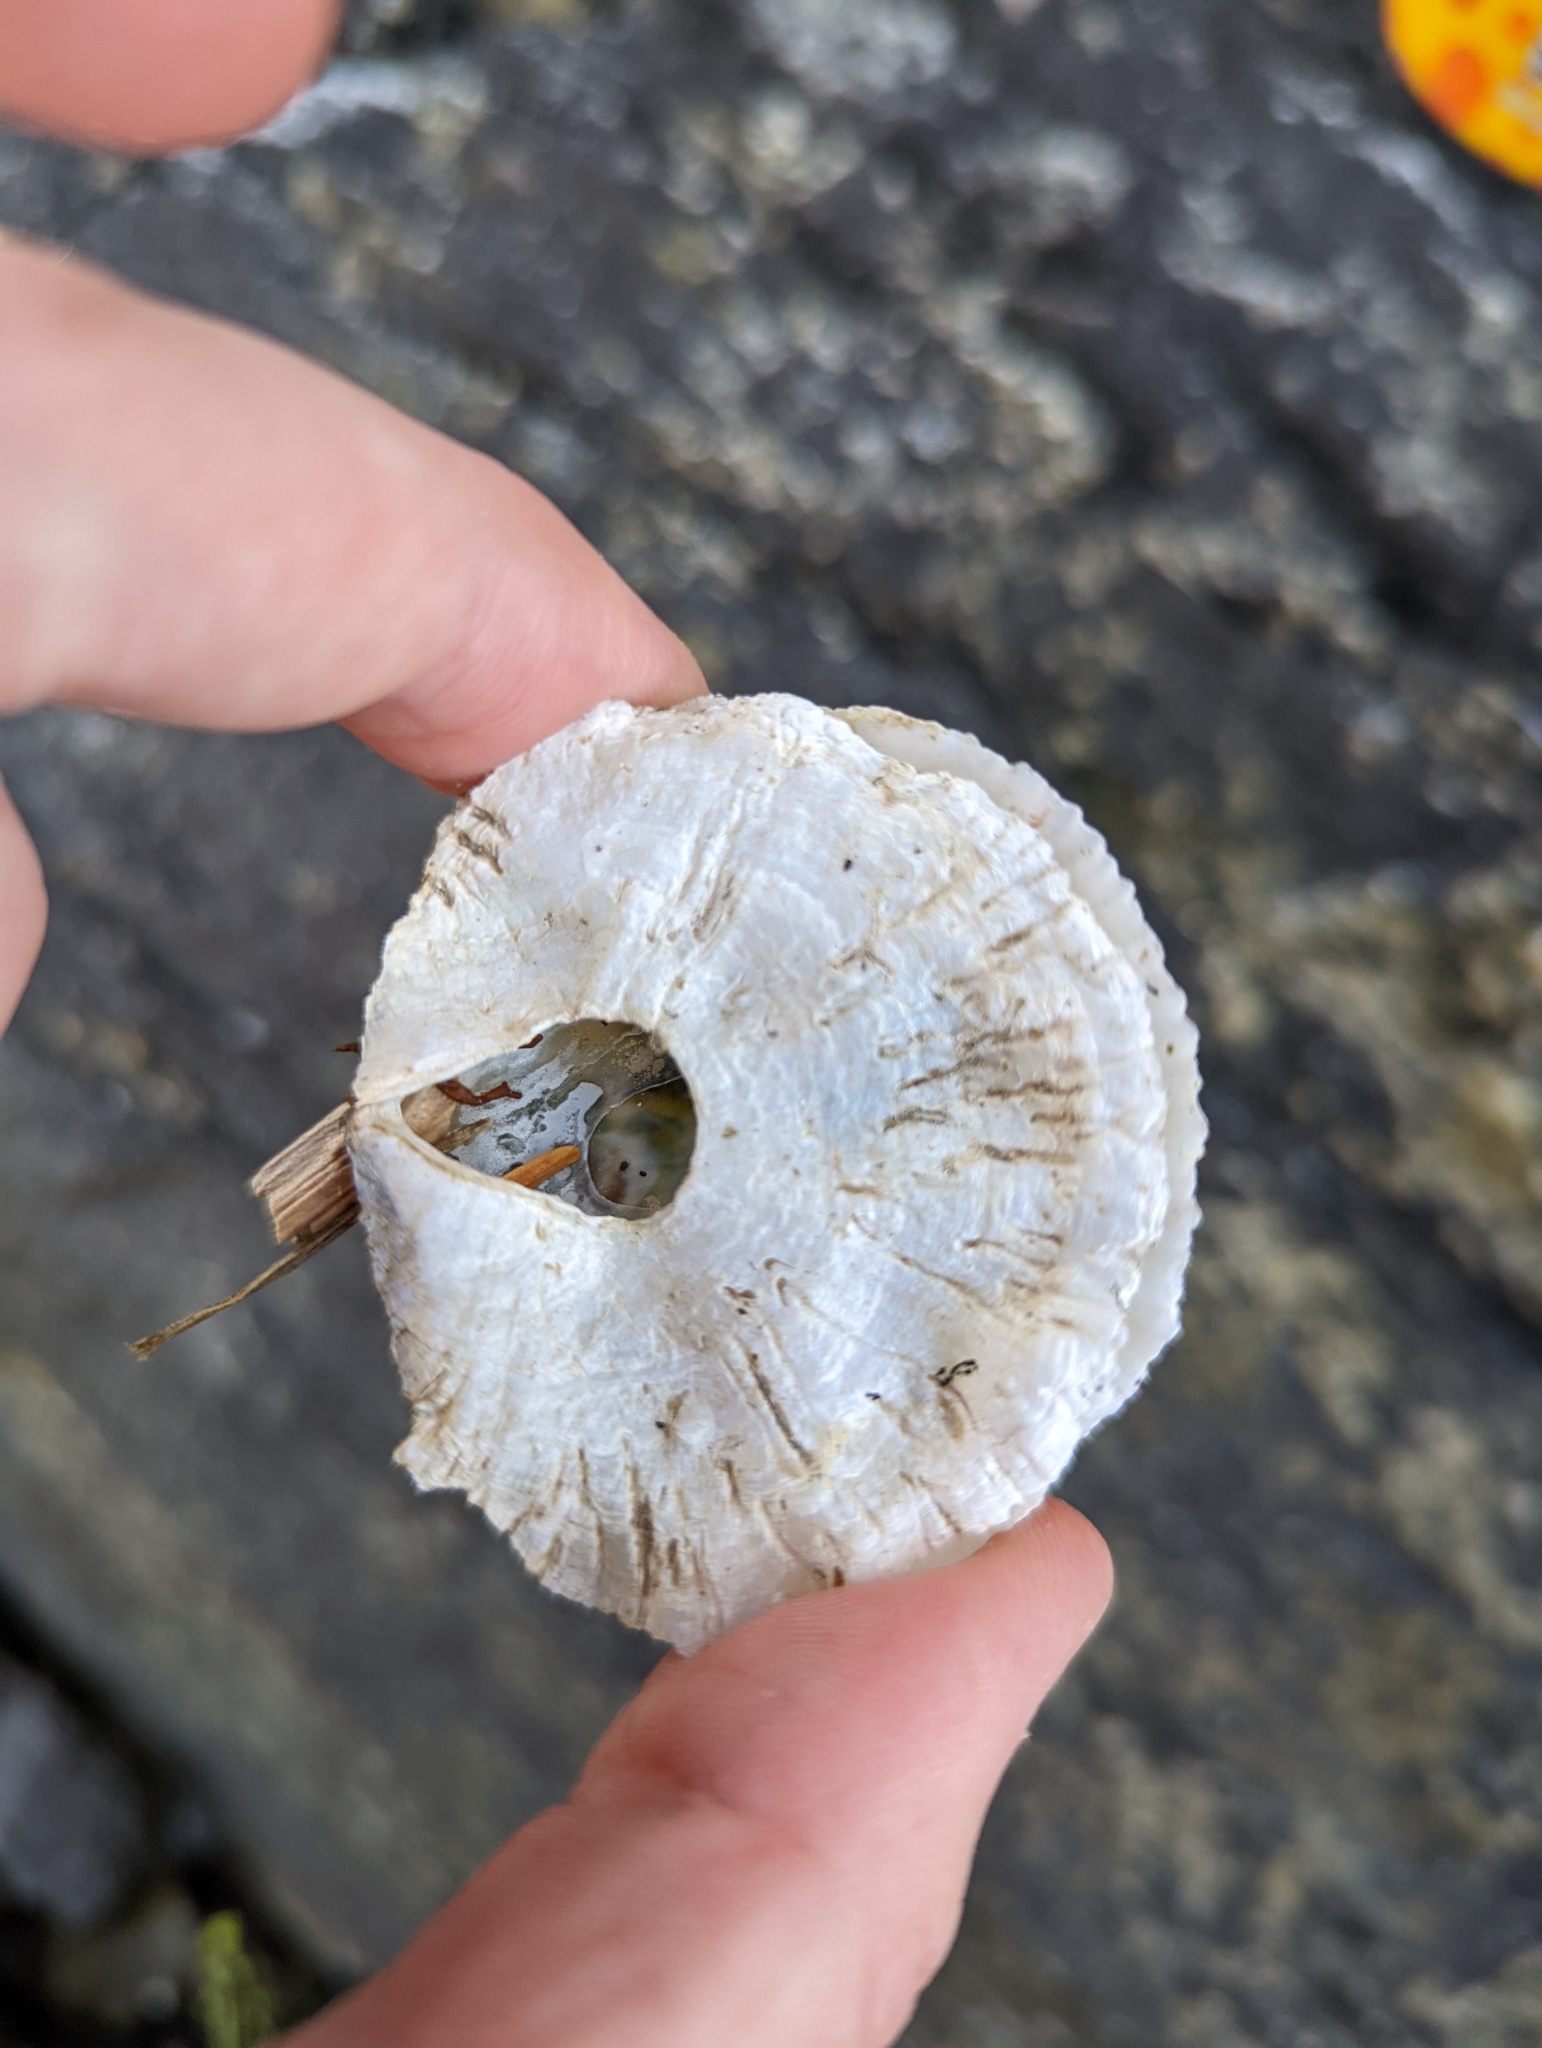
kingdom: Animalia
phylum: Mollusca
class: Bivalvia
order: Pectinida
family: Anomiidae
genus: Pododesmus
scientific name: Pododesmus macrochisma
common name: Alaska jingle
